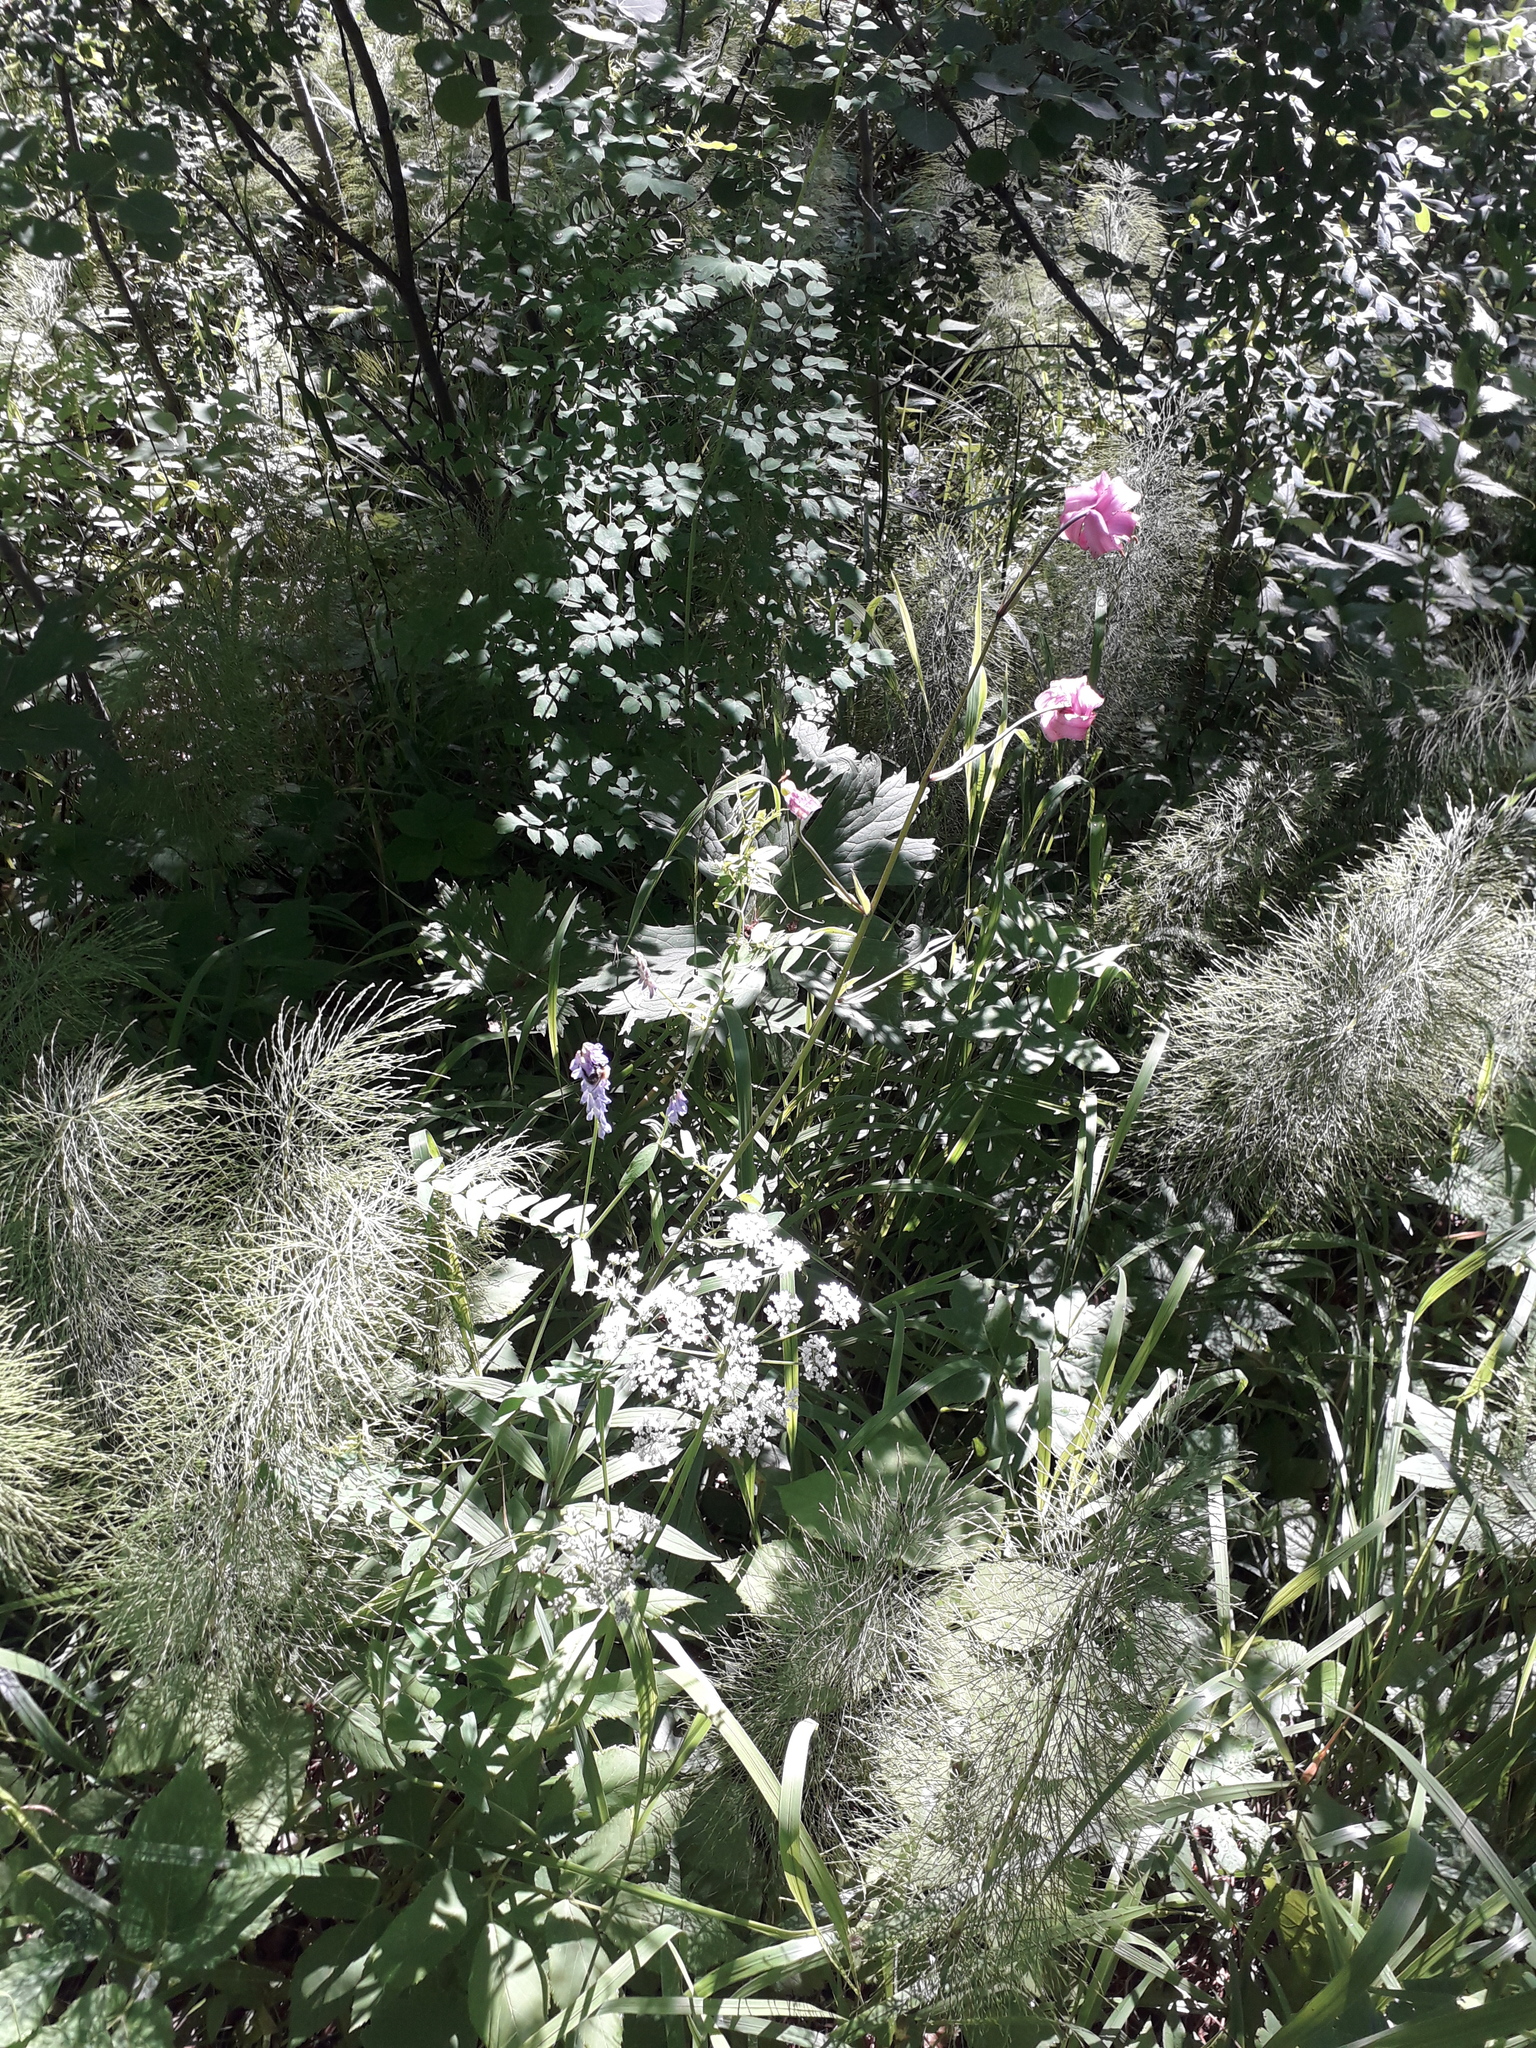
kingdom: Plantae
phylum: Tracheophyta
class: Liliopsida
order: Liliales
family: Liliaceae
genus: Lilium
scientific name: Lilium martagon
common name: Martagon lily
